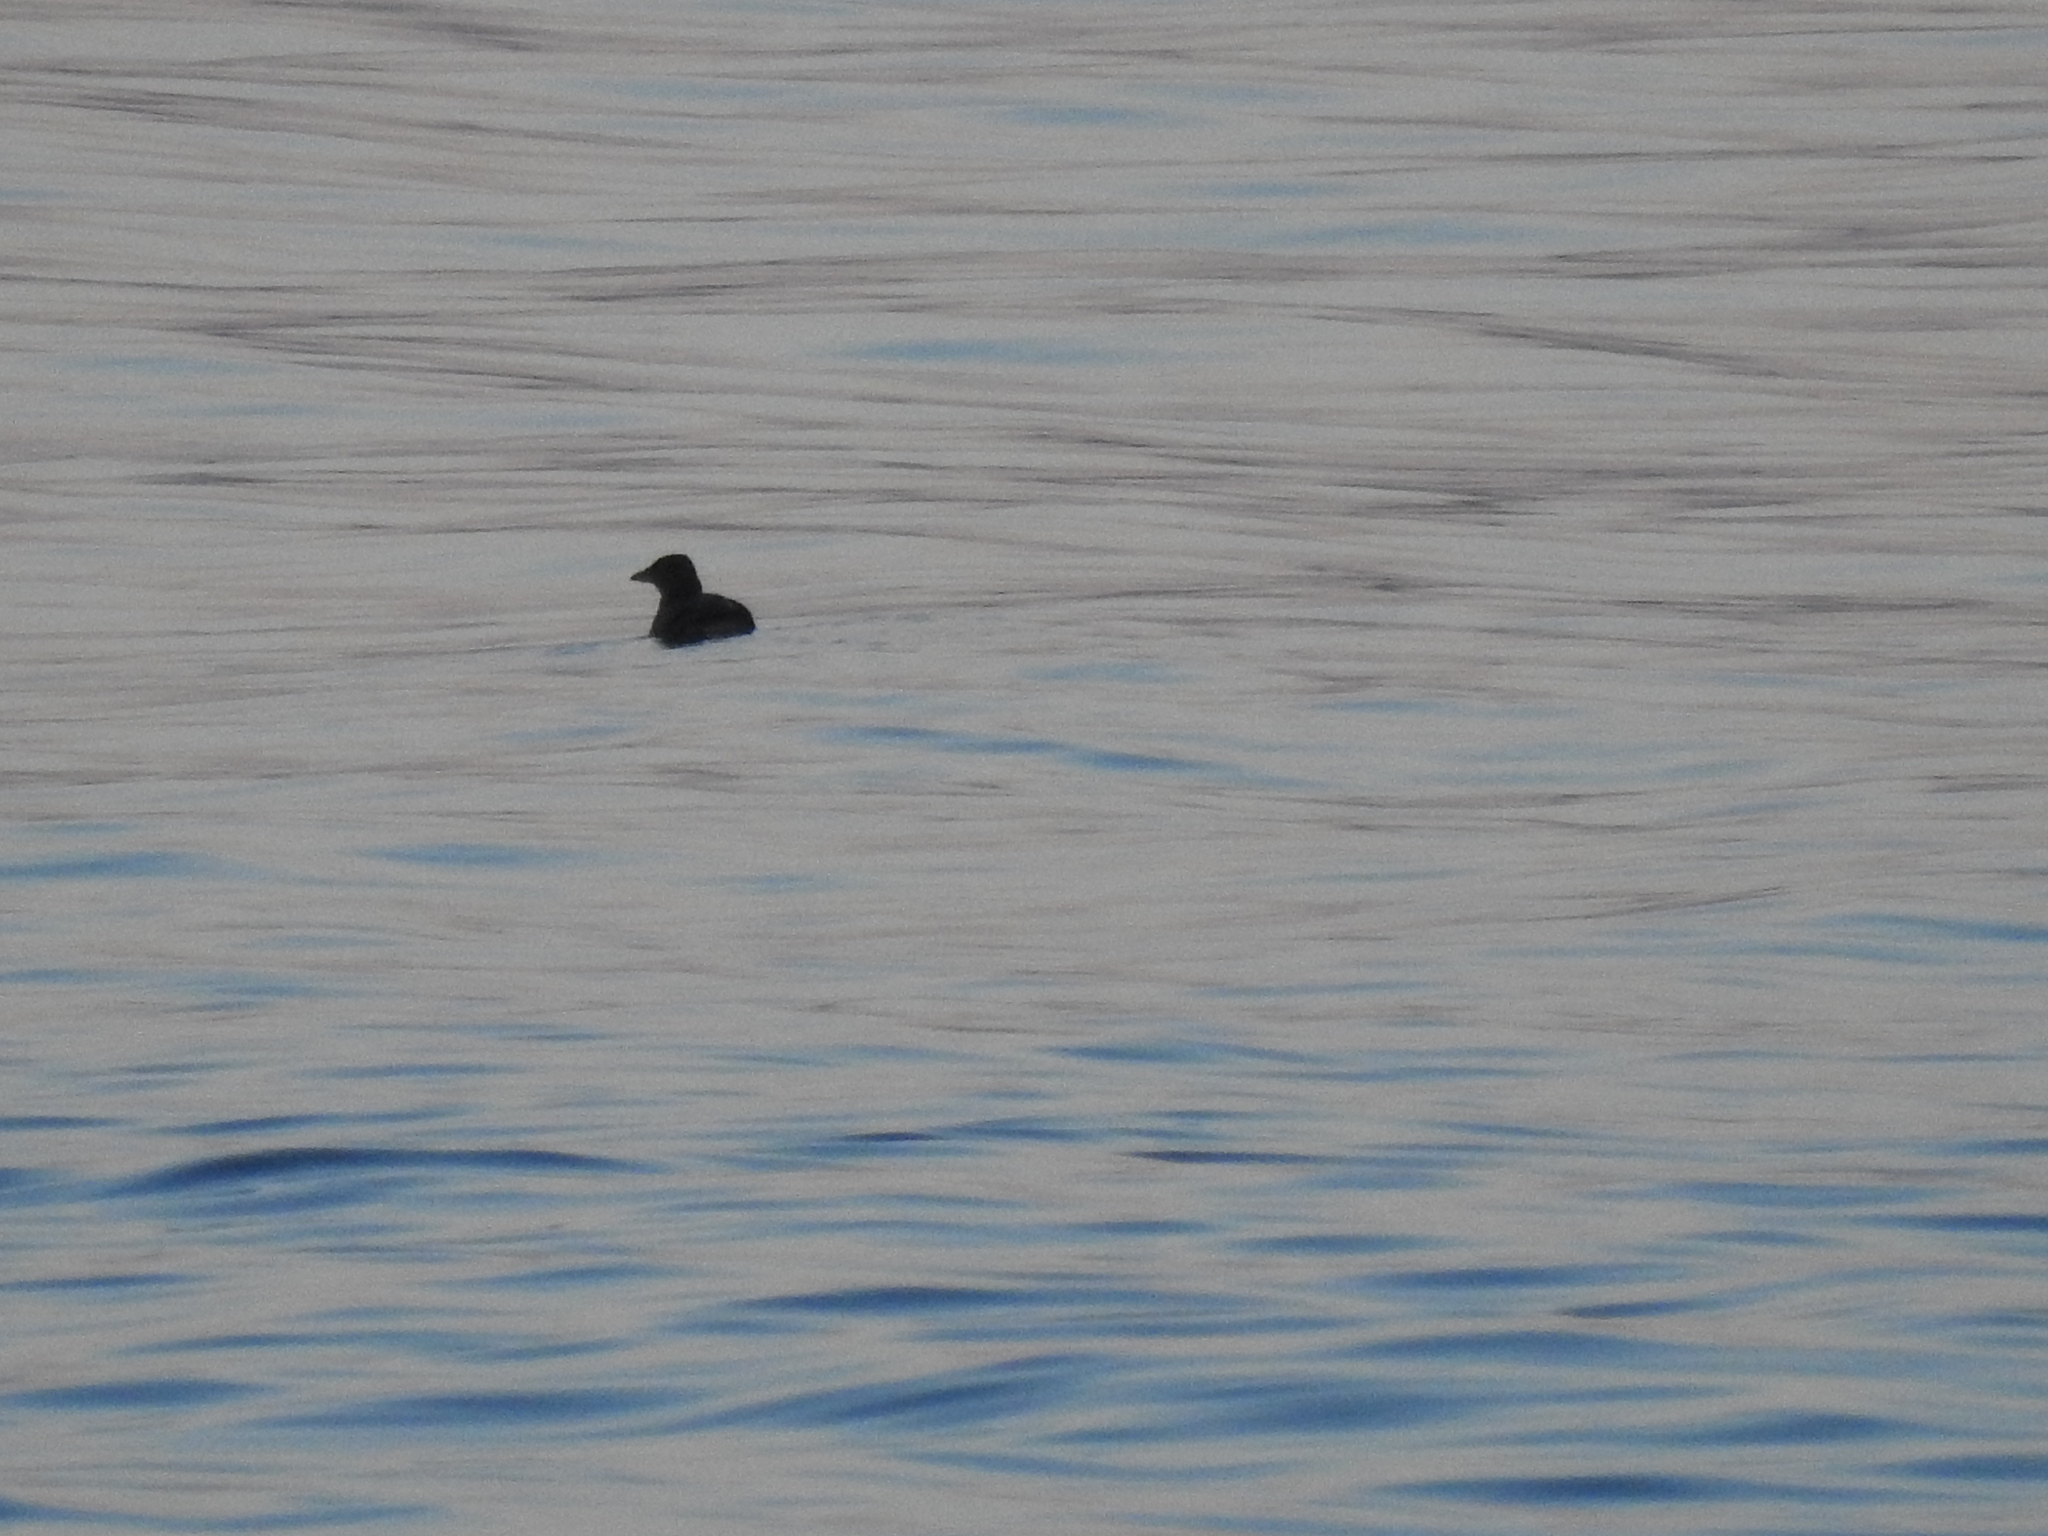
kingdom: Animalia
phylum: Chordata
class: Aves
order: Charadriiformes
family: Alcidae
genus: Cerorhinca
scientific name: Cerorhinca monocerata
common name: Rhinoceros auklet
